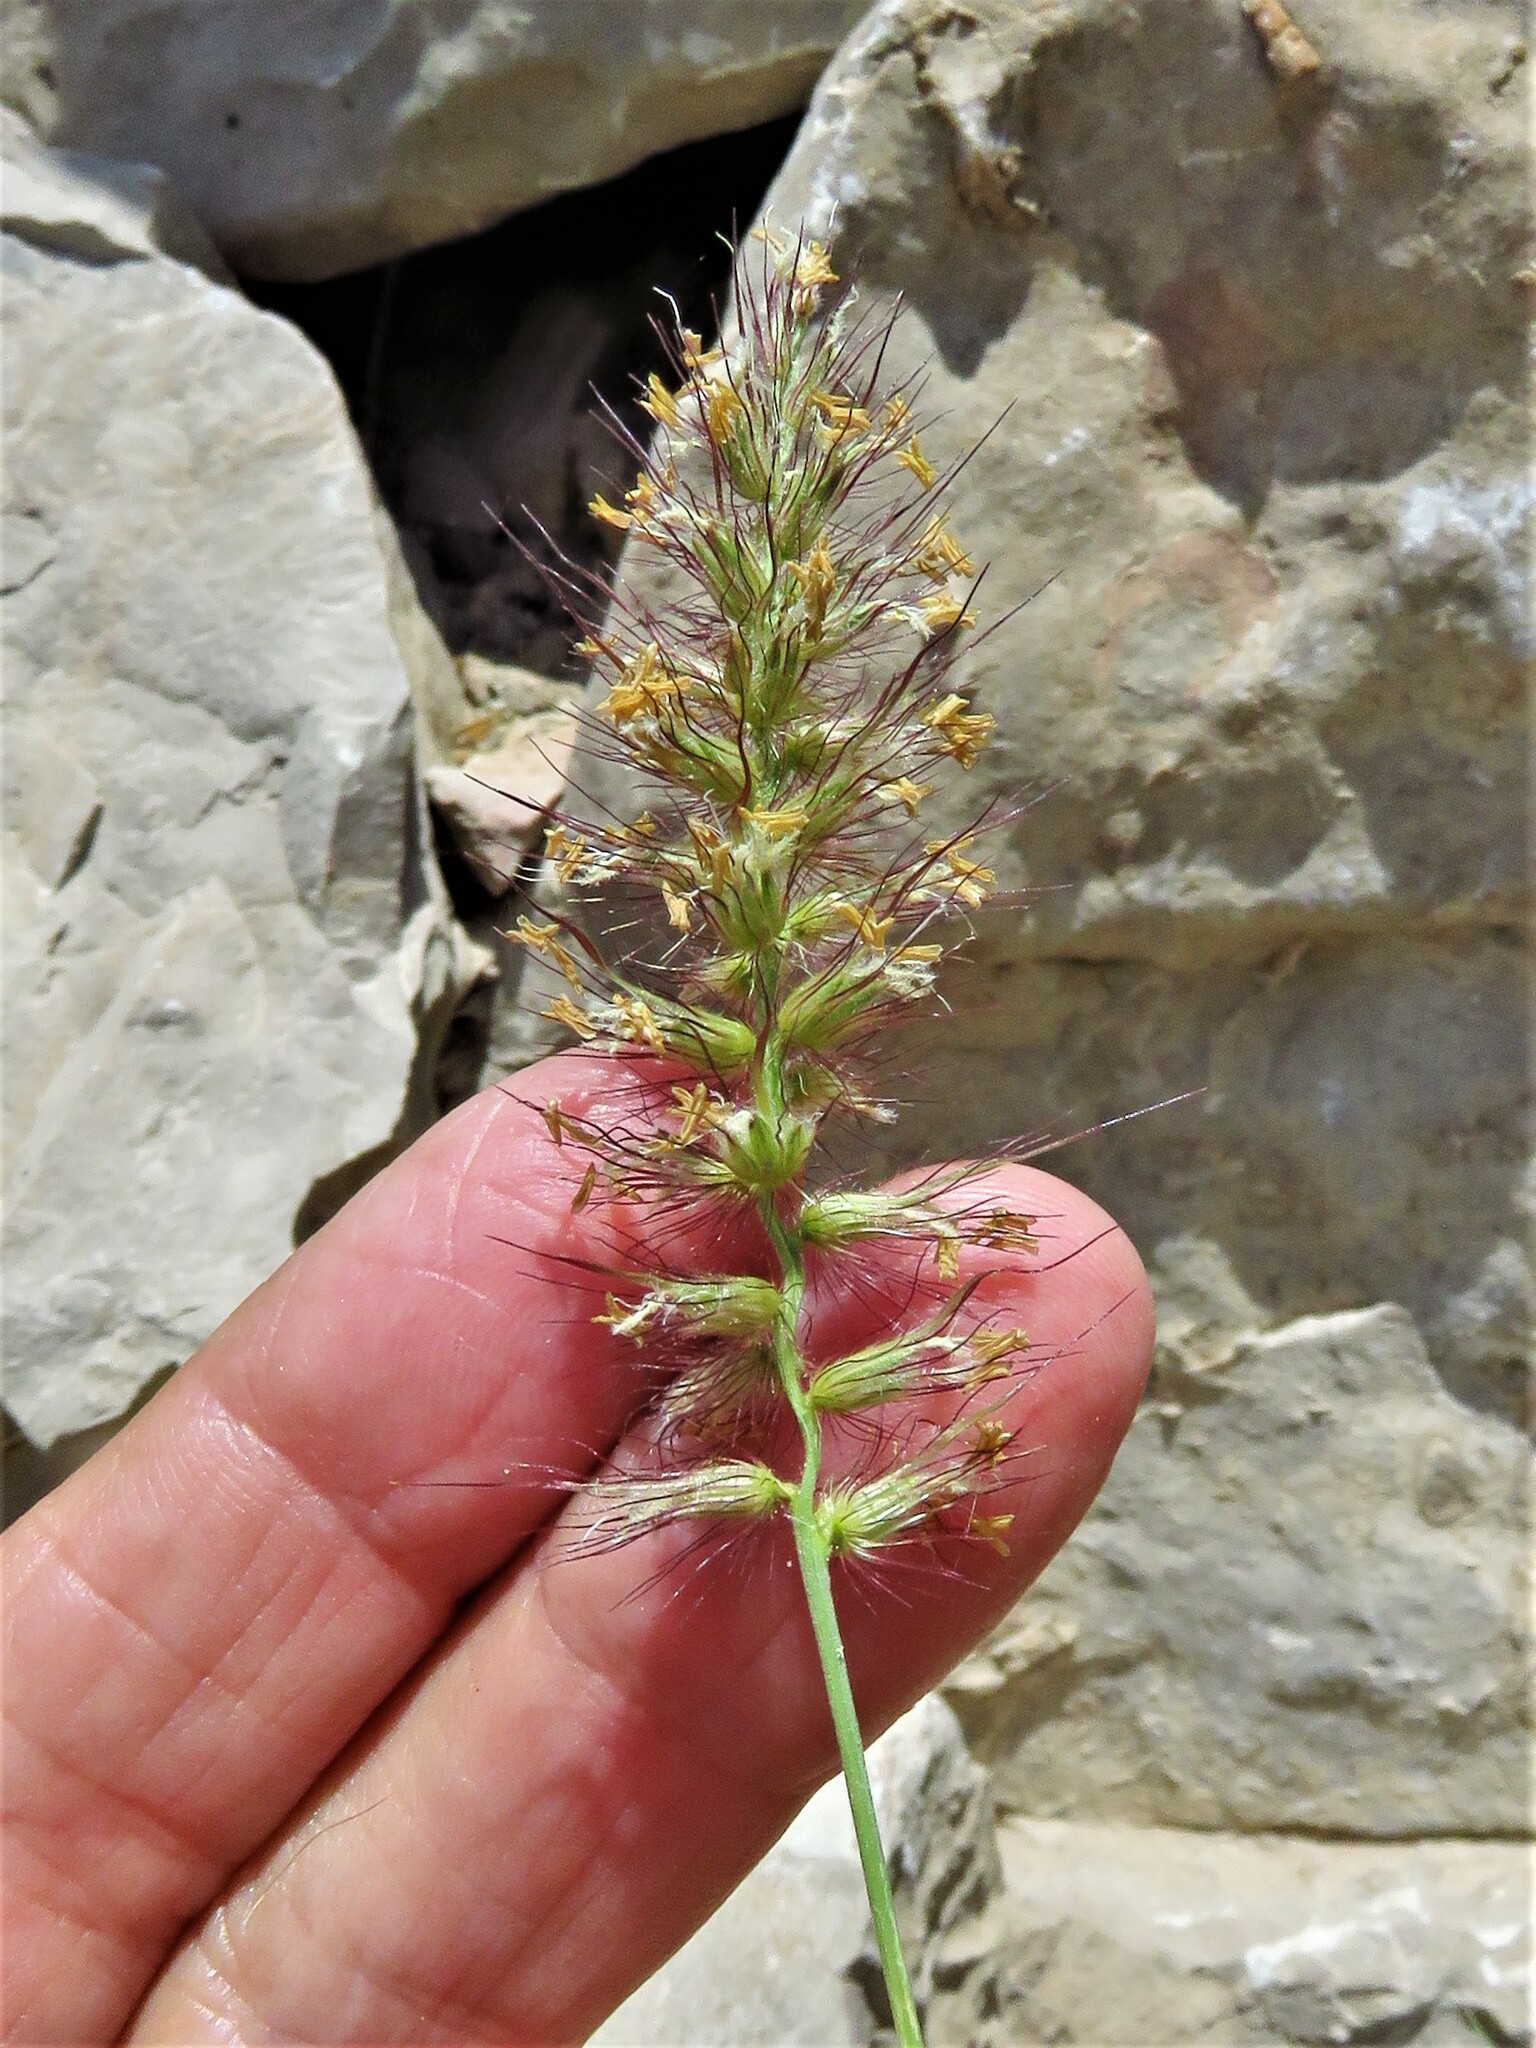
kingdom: Plantae
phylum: Tracheophyta
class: Liliopsida
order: Poales
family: Poaceae
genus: Cenchrus
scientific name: Cenchrus ciliaris
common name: Buffelgrass
